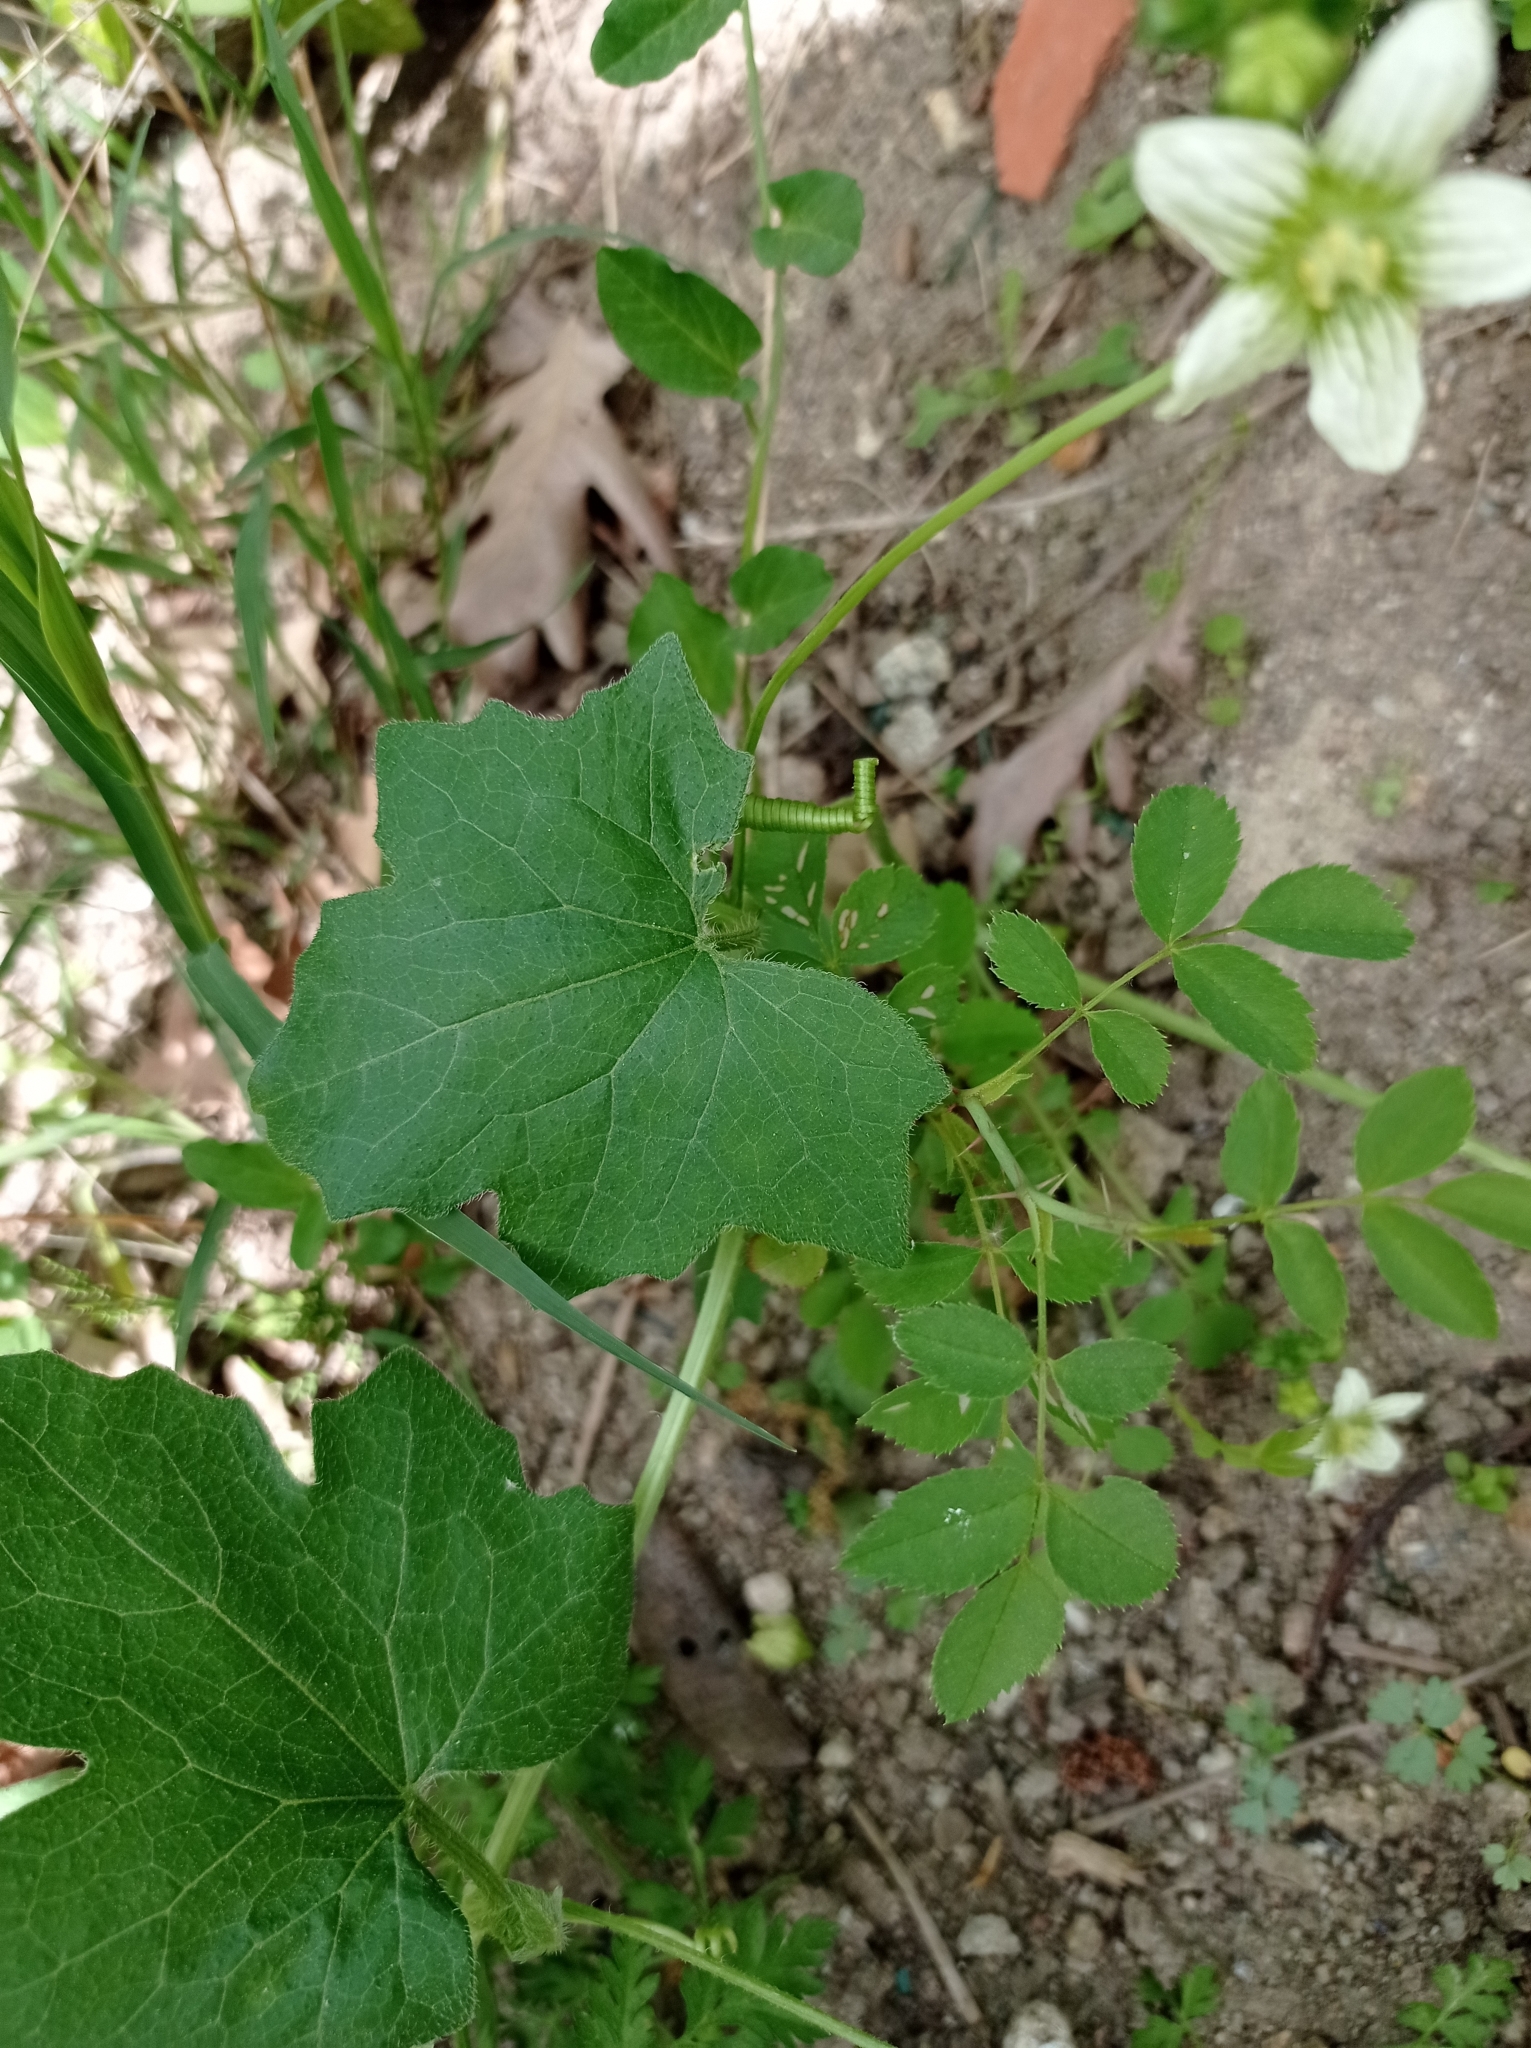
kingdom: Plantae
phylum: Tracheophyta
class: Magnoliopsida
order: Cucurbitales
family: Cucurbitaceae
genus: Bryonia
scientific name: Bryonia cretica
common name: Cretan bryony
